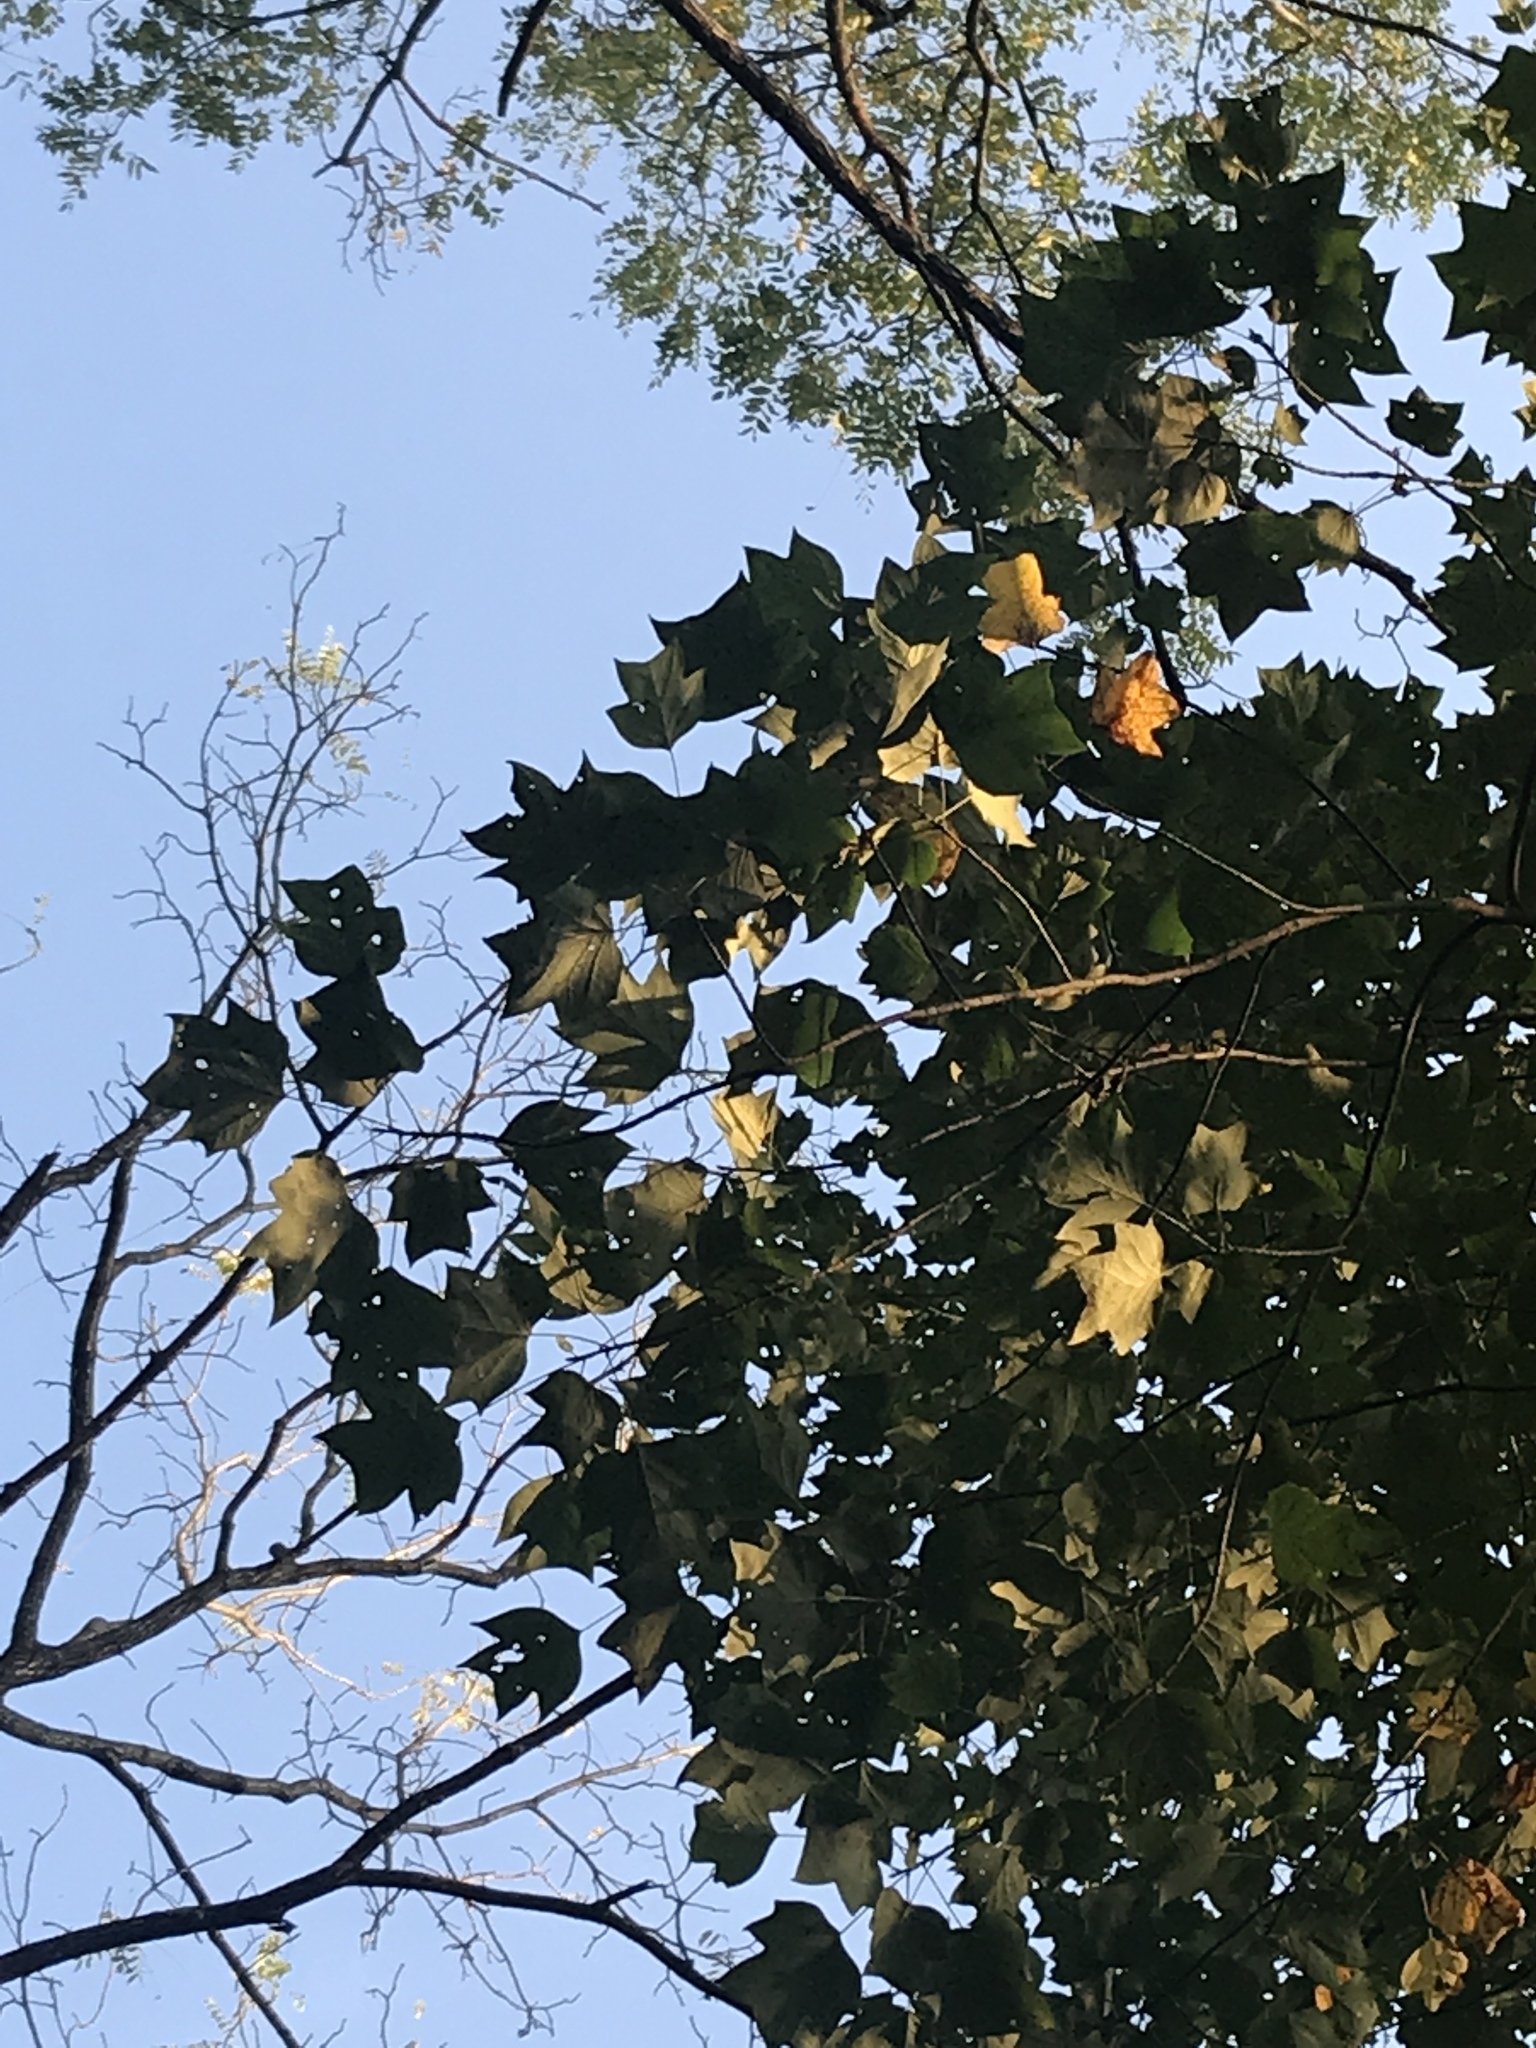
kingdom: Plantae
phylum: Tracheophyta
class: Magnoliopsida
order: Magnoliales
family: Magnoliaceae
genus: Liriodendron
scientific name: Liriodendron tulipifera
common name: Tulip tree
